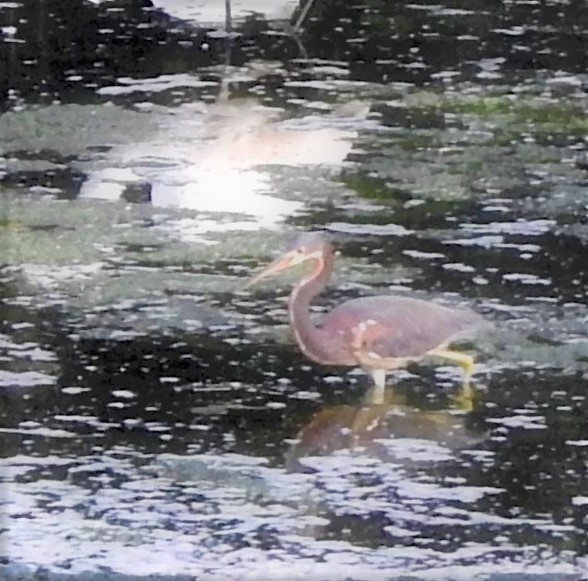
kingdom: Animalia
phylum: Chordata
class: Aves
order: Pelecaniformes
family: Ardeidae
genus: Egretta
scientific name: Egretta tricolor
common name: Tricolored heron
